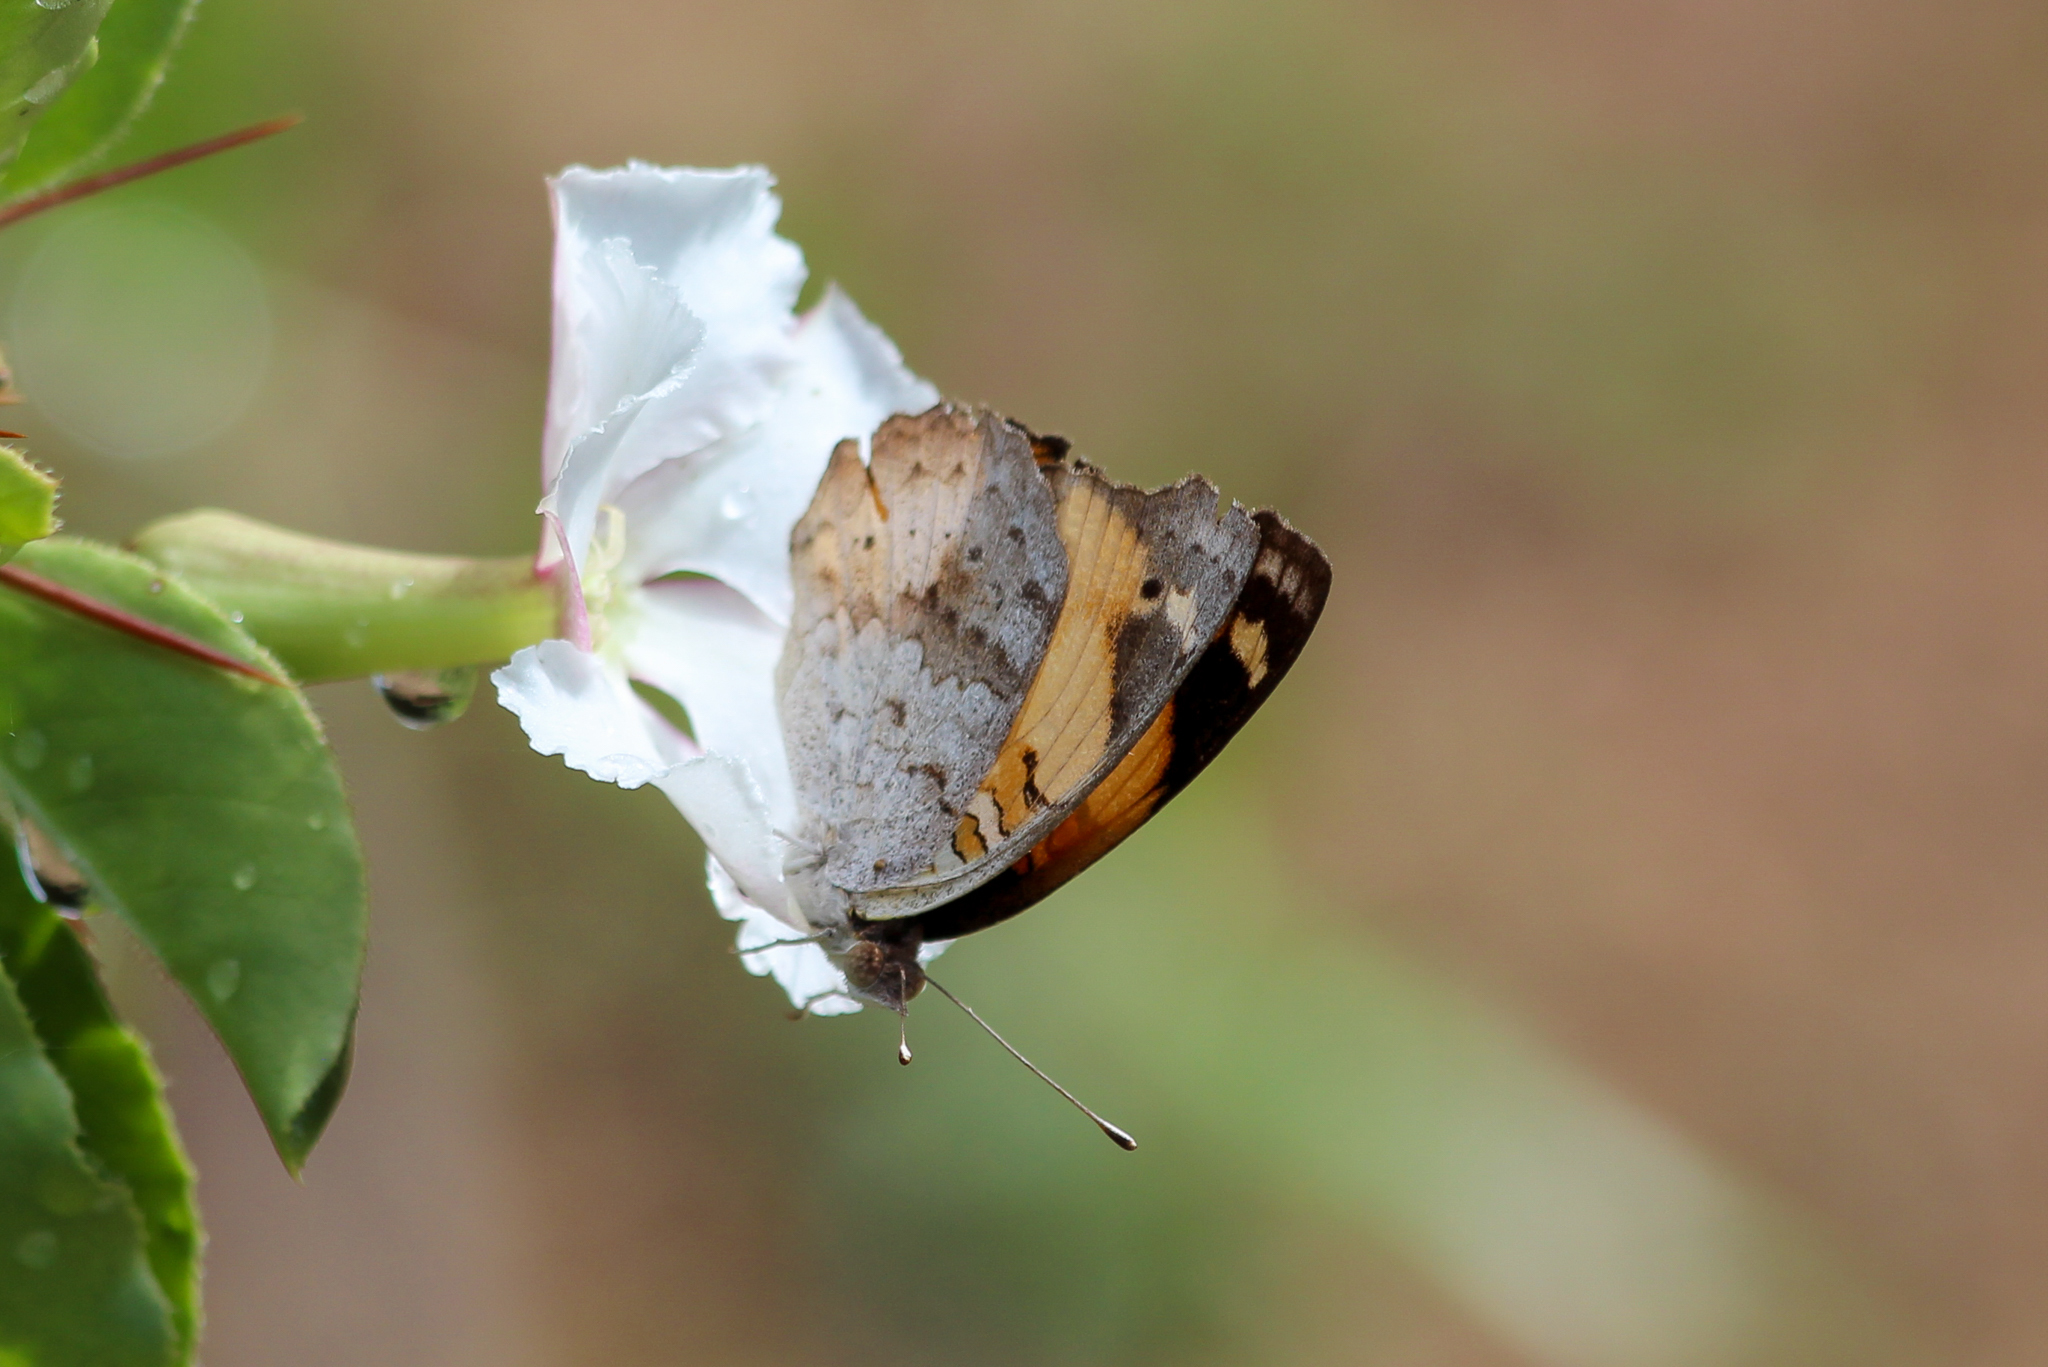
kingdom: Animalia
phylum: Arthropoda
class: Insecta
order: Lepidoptera
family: Nymphalidae
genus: Junonia
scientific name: Junonia hierta
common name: Yellow pansy
